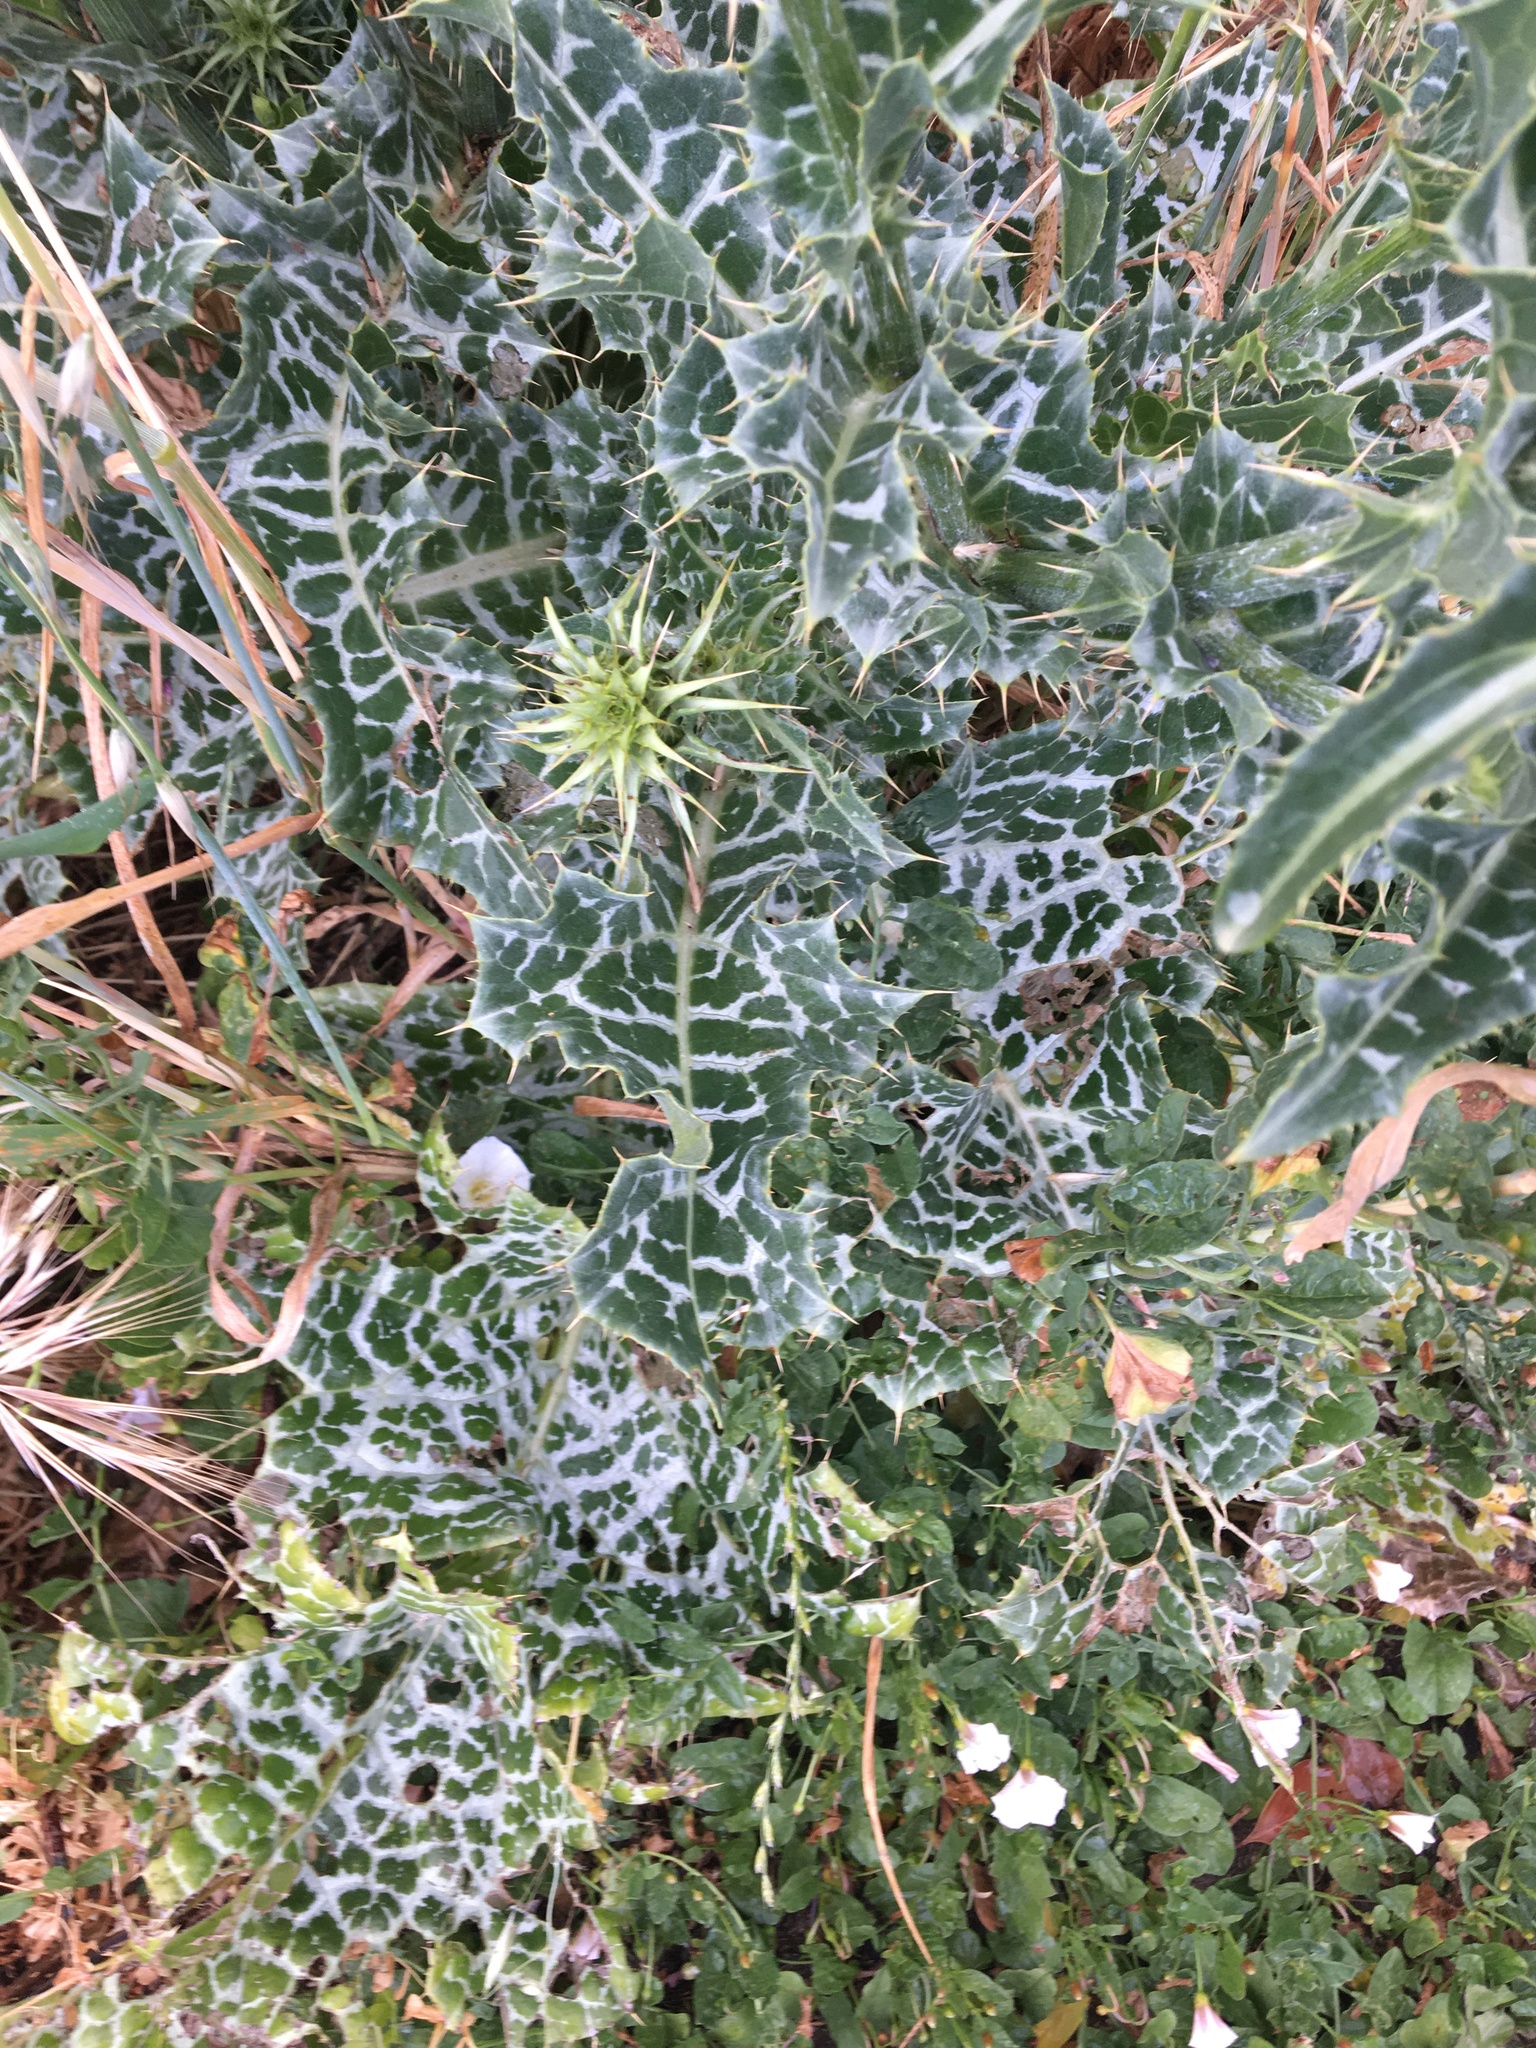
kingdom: Plantae
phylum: Tracheophyta
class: Magnoliopsida
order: Asterales
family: Asteraceae
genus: Silybum
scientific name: Silybum marianum
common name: Milk thistle
